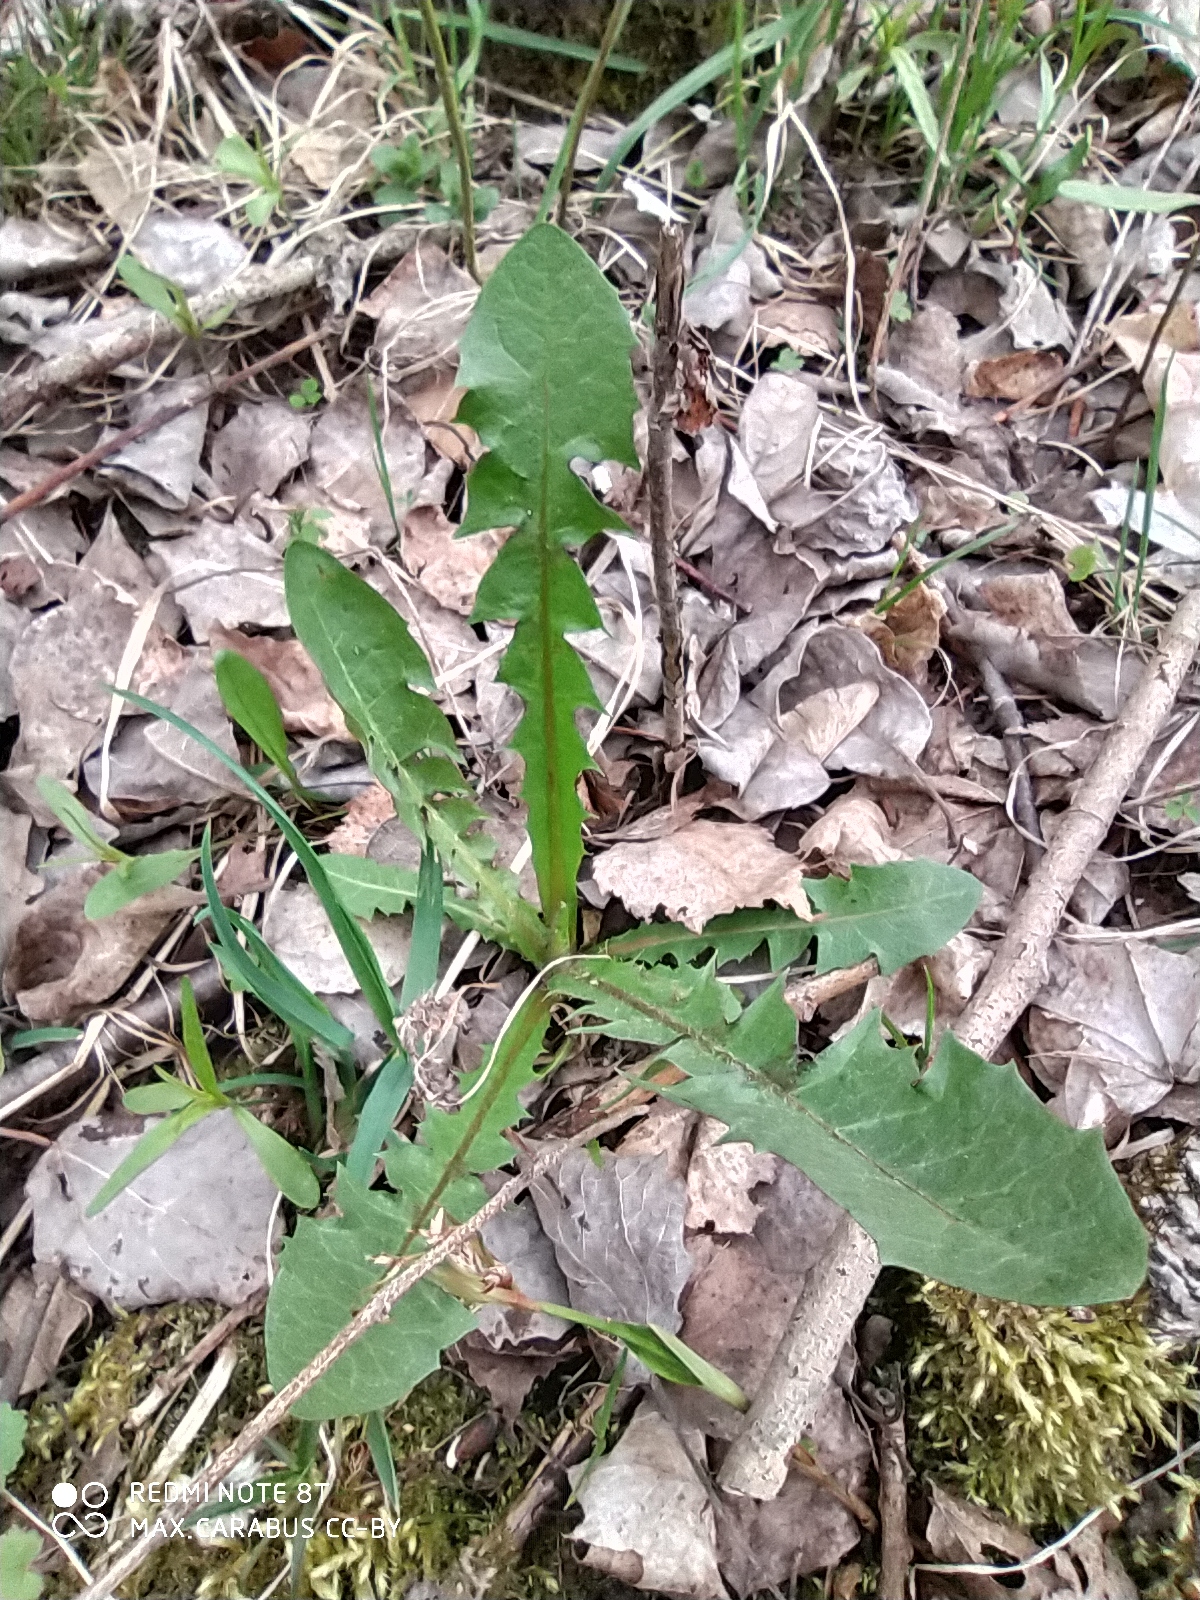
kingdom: Plantae
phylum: Tracheophyta
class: Magnoliopsida
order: Asterales
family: Asteraceae
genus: Taraxacum
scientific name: Taraxacum officinale
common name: Common dandelion
